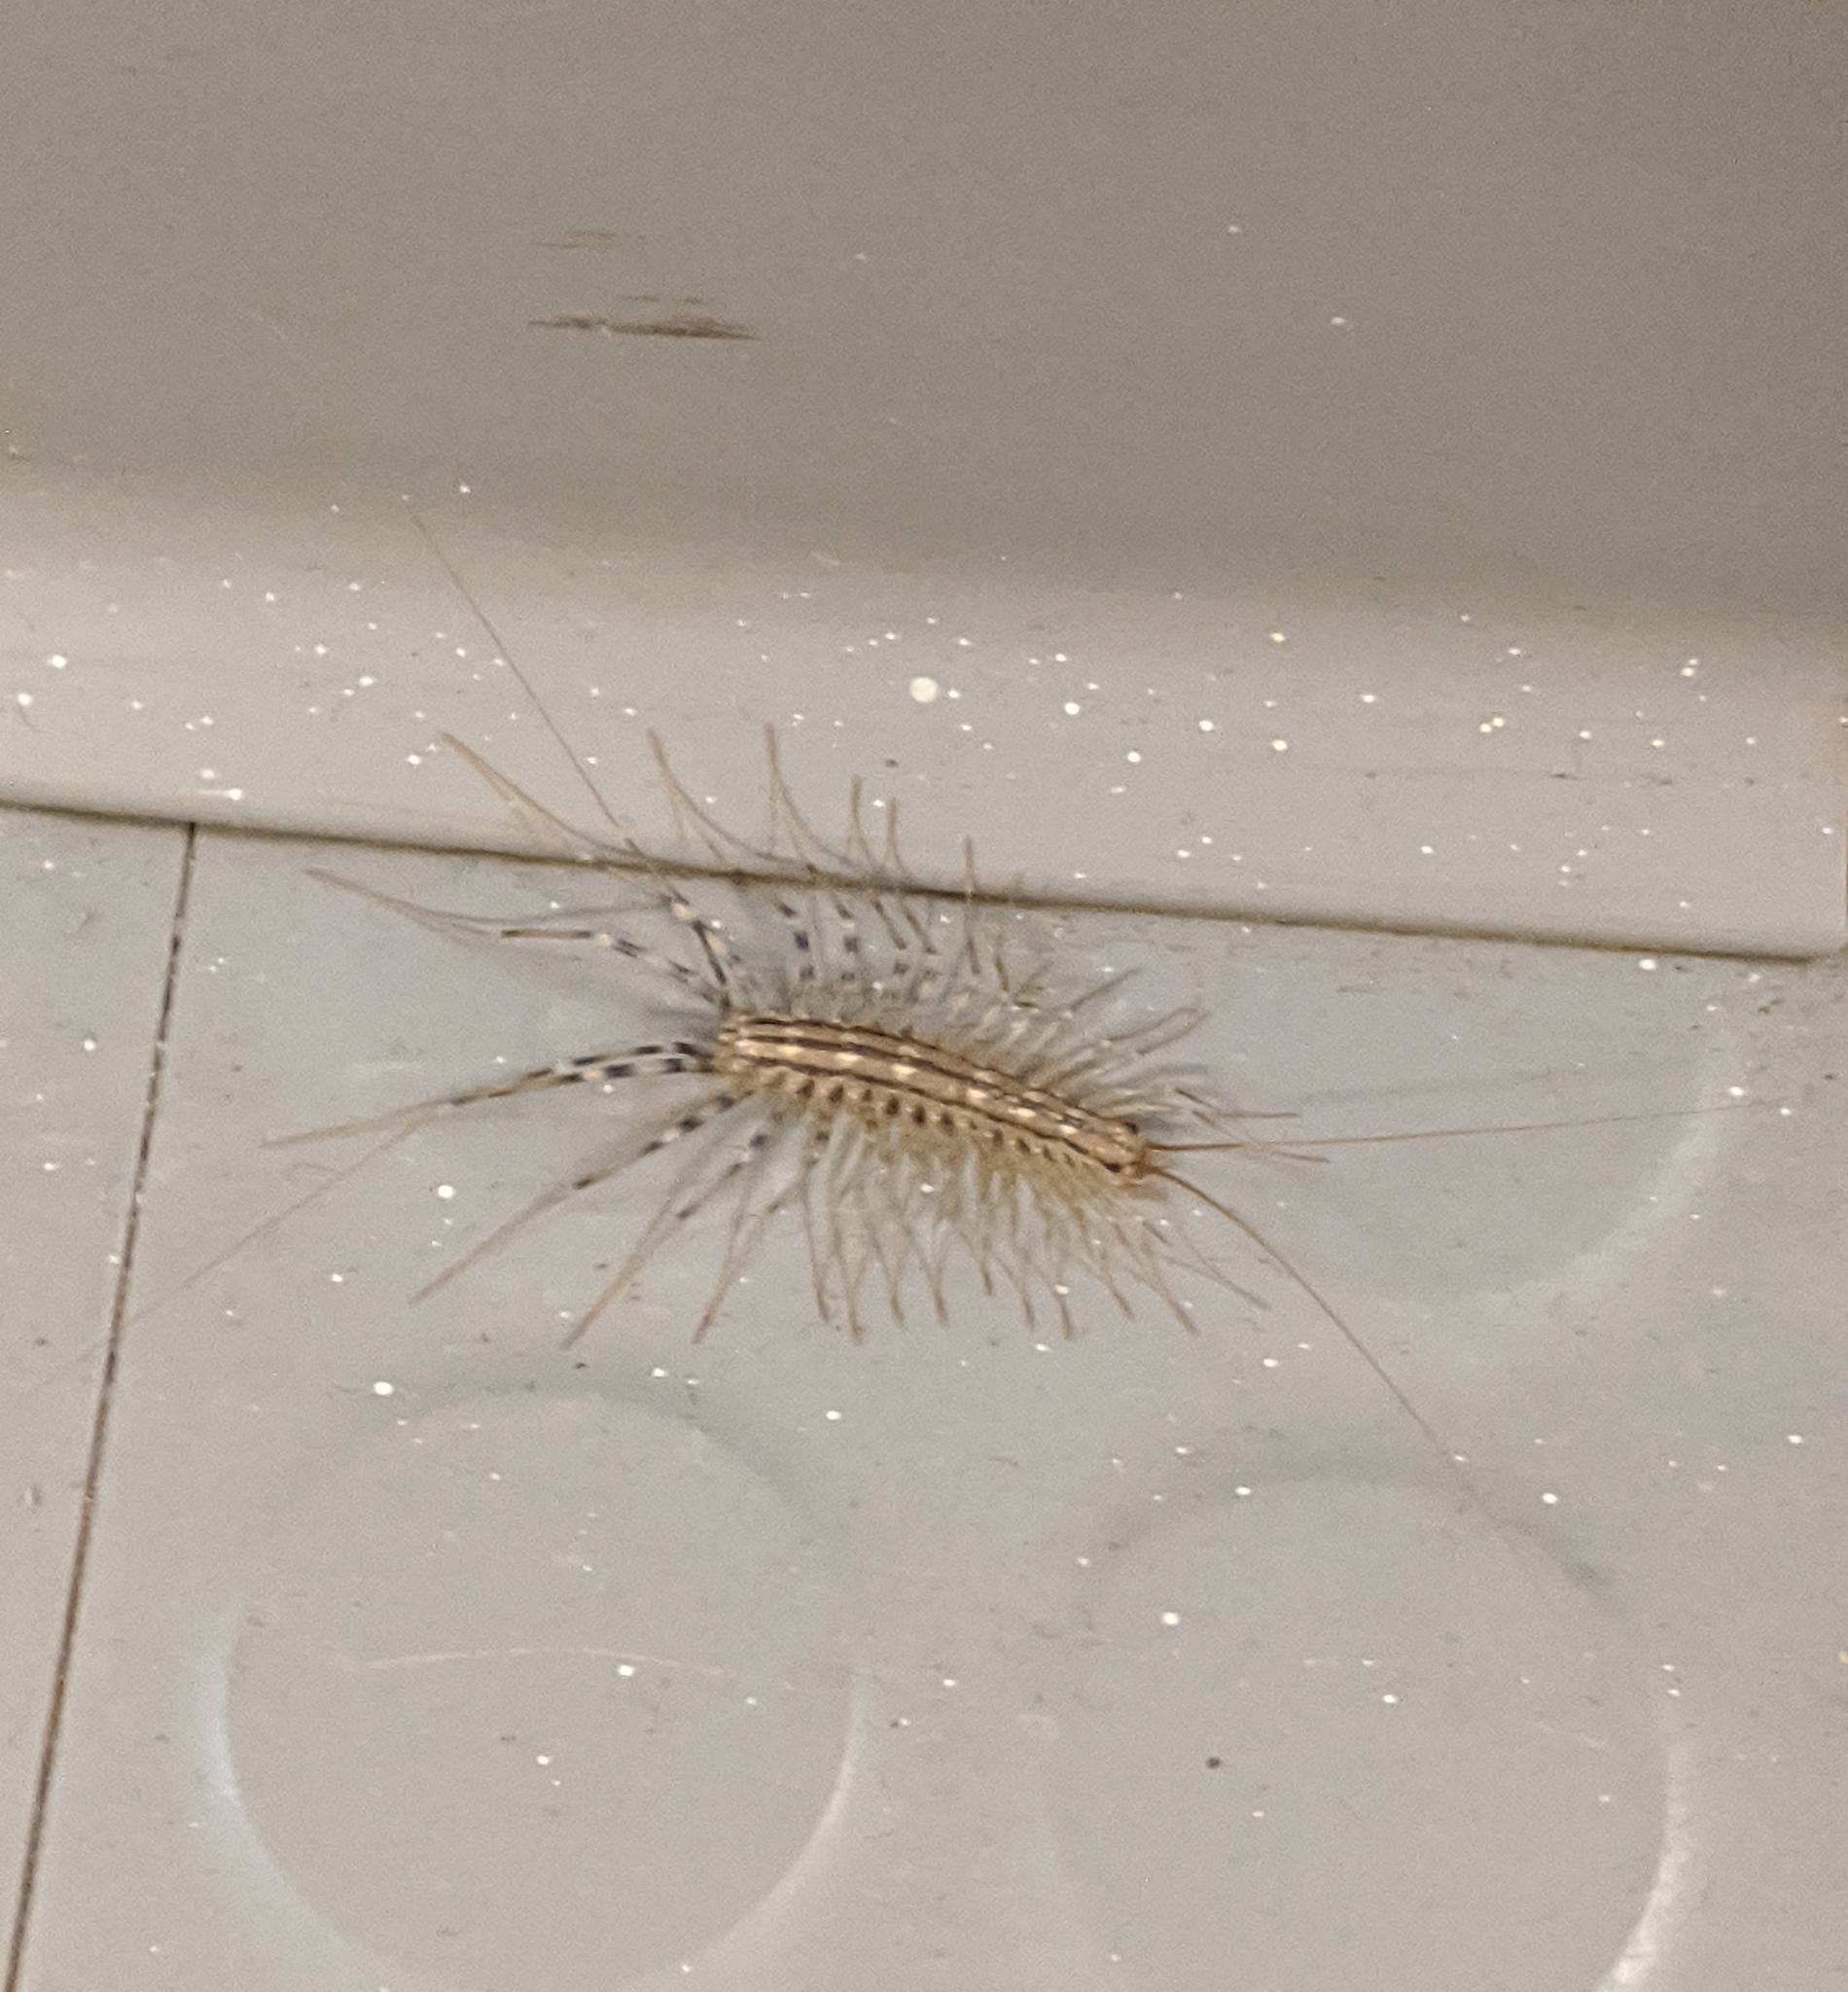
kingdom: Animalia
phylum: Arthropoda
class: Chilopoda
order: Scutigeromorpha
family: Scutigeridae
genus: Scutigera
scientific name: Scutigera coleoptrata
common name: House centipede
